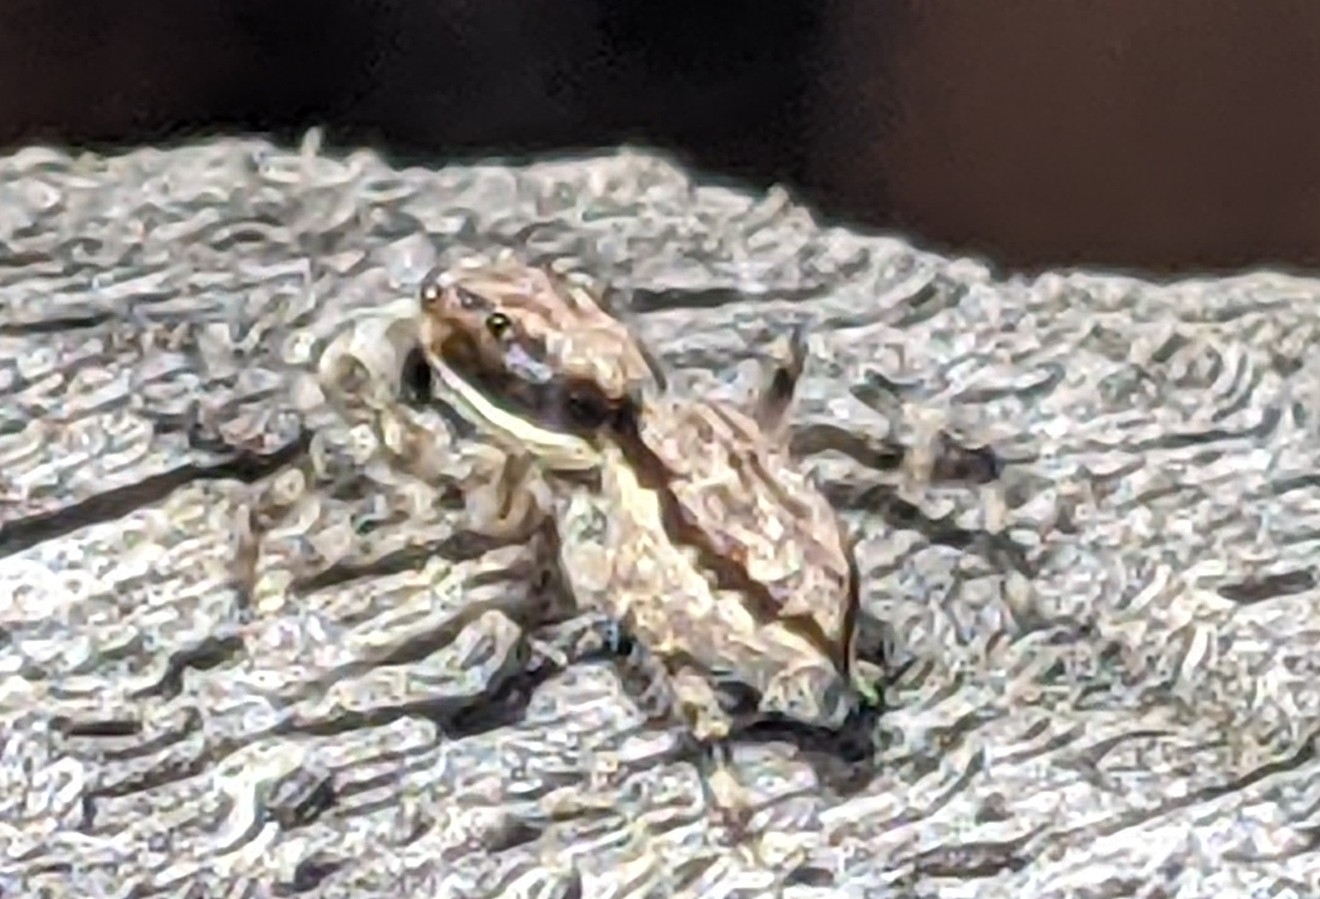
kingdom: Animalia
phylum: Arthropoda
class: Arachnida
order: Araneae
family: Salticidae
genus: Menemerus
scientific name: Menemerus bivittatus
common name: Gray wall jumper
